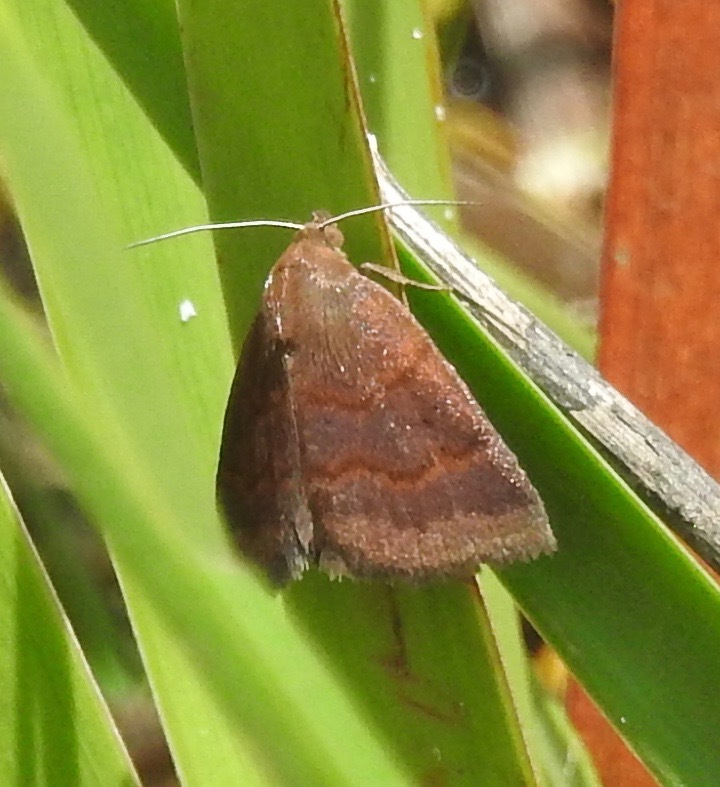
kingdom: Animalia
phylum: Arthropoda
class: Insecta
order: Lepidoptera
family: Erebidae
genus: Argyrostrotis
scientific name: Argyrostrotis deleta
